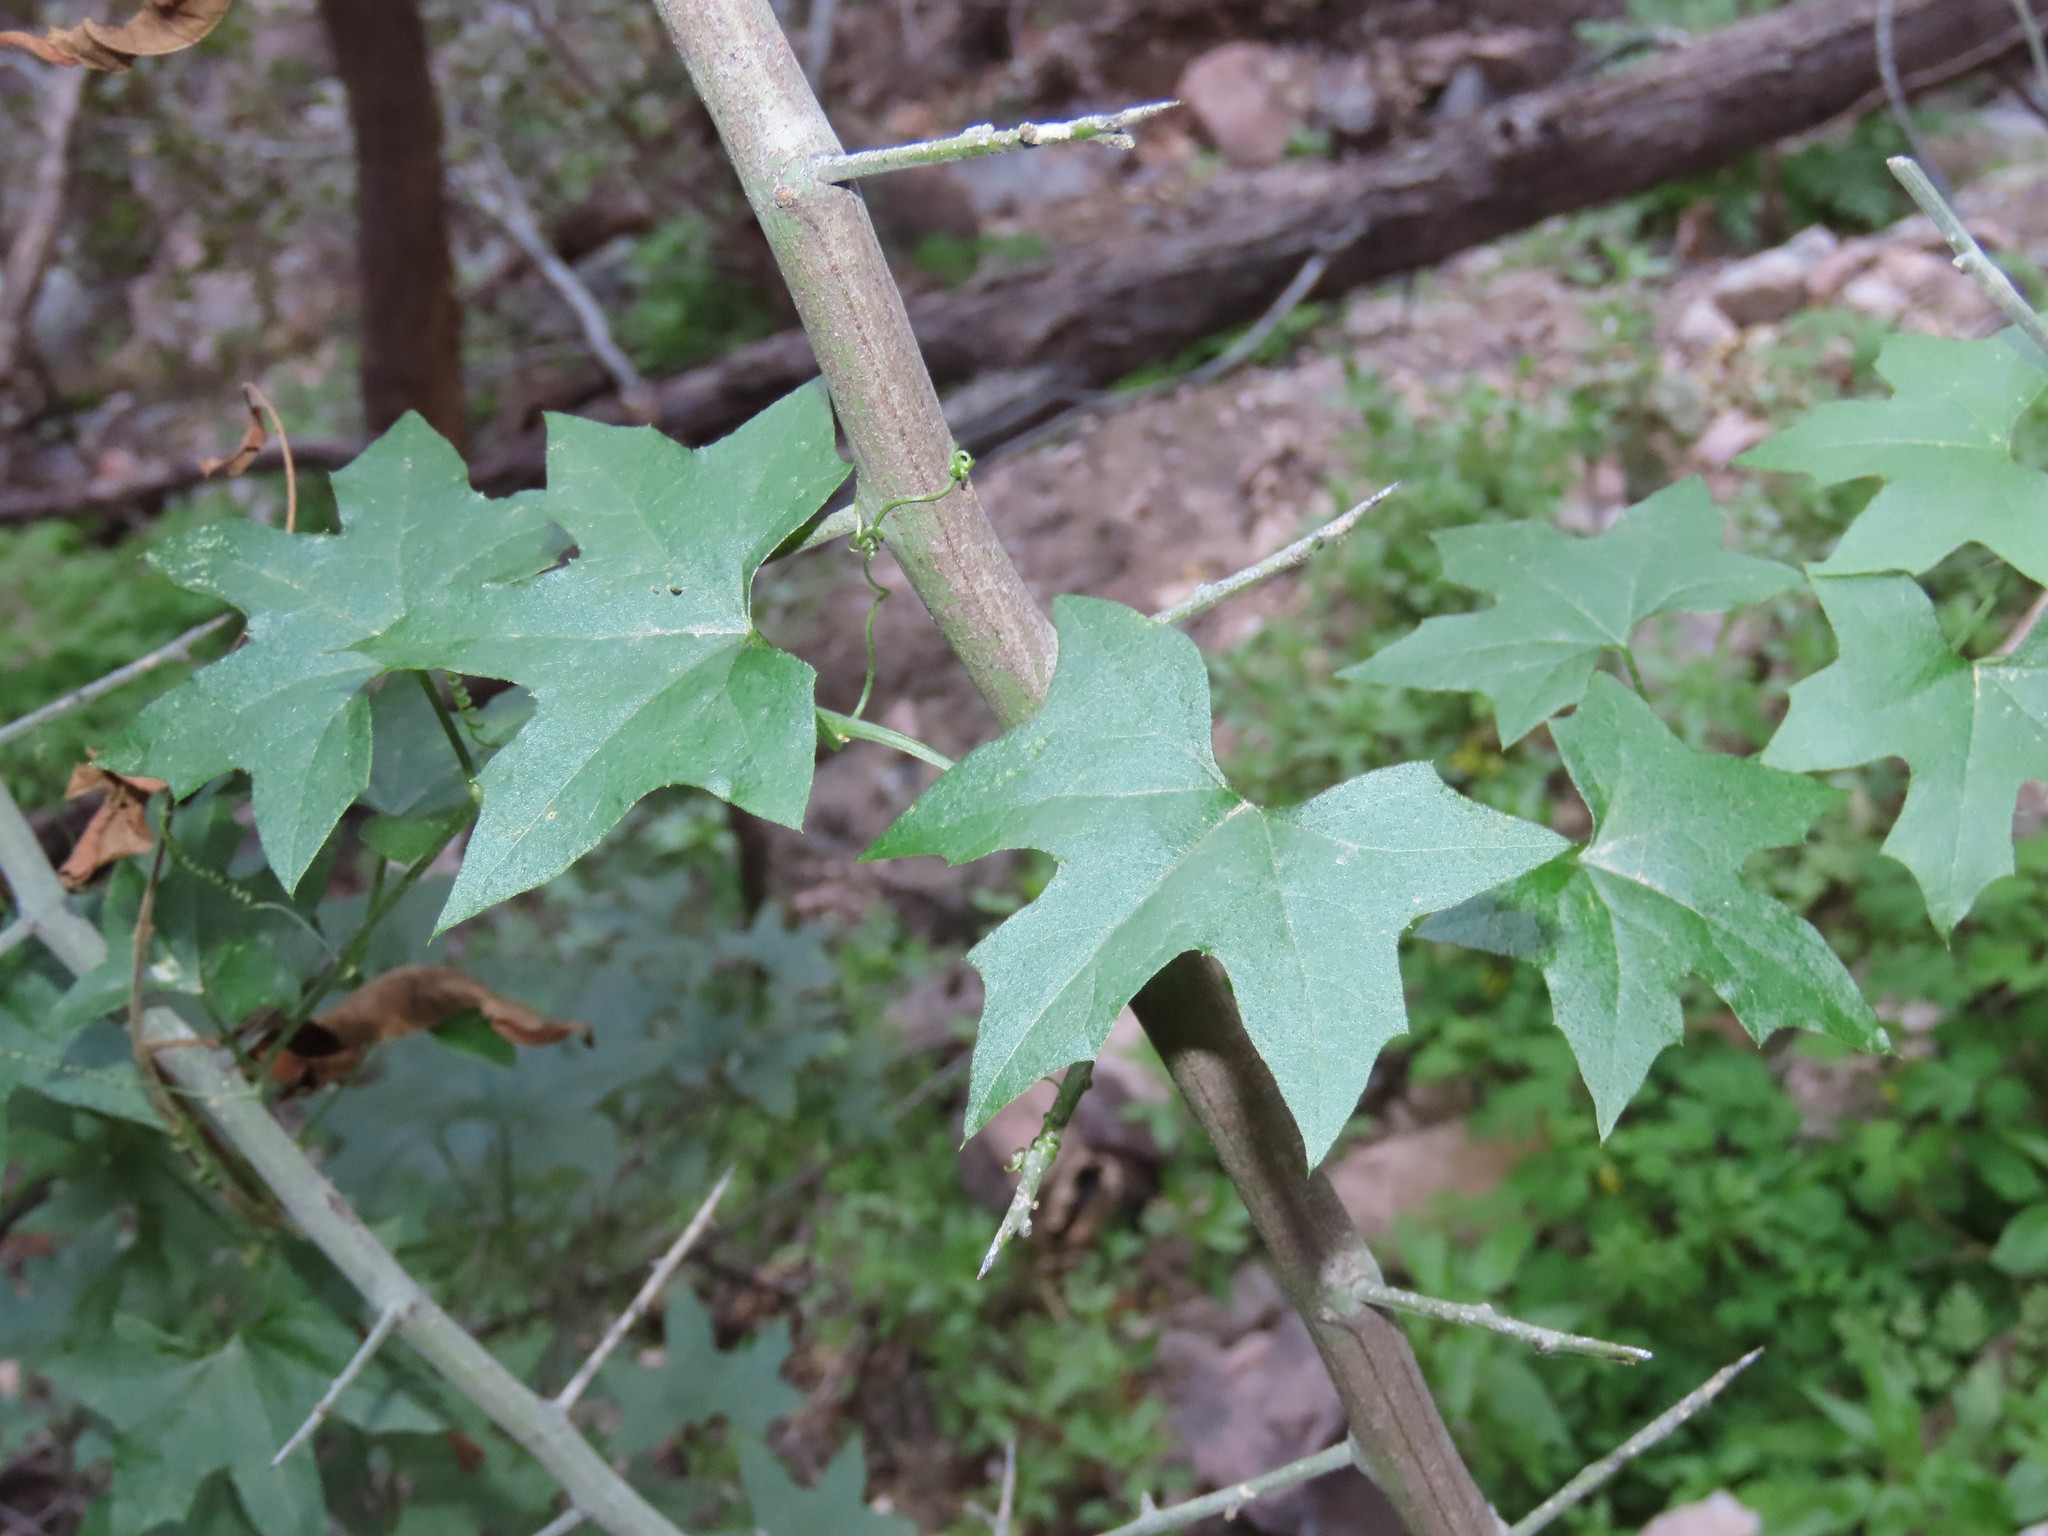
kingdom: Plantae
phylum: Tracheophyta
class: Magnoliopsida
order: Cucurbitales
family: Cucurbitaceae
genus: Marah
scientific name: Marah gilensis
